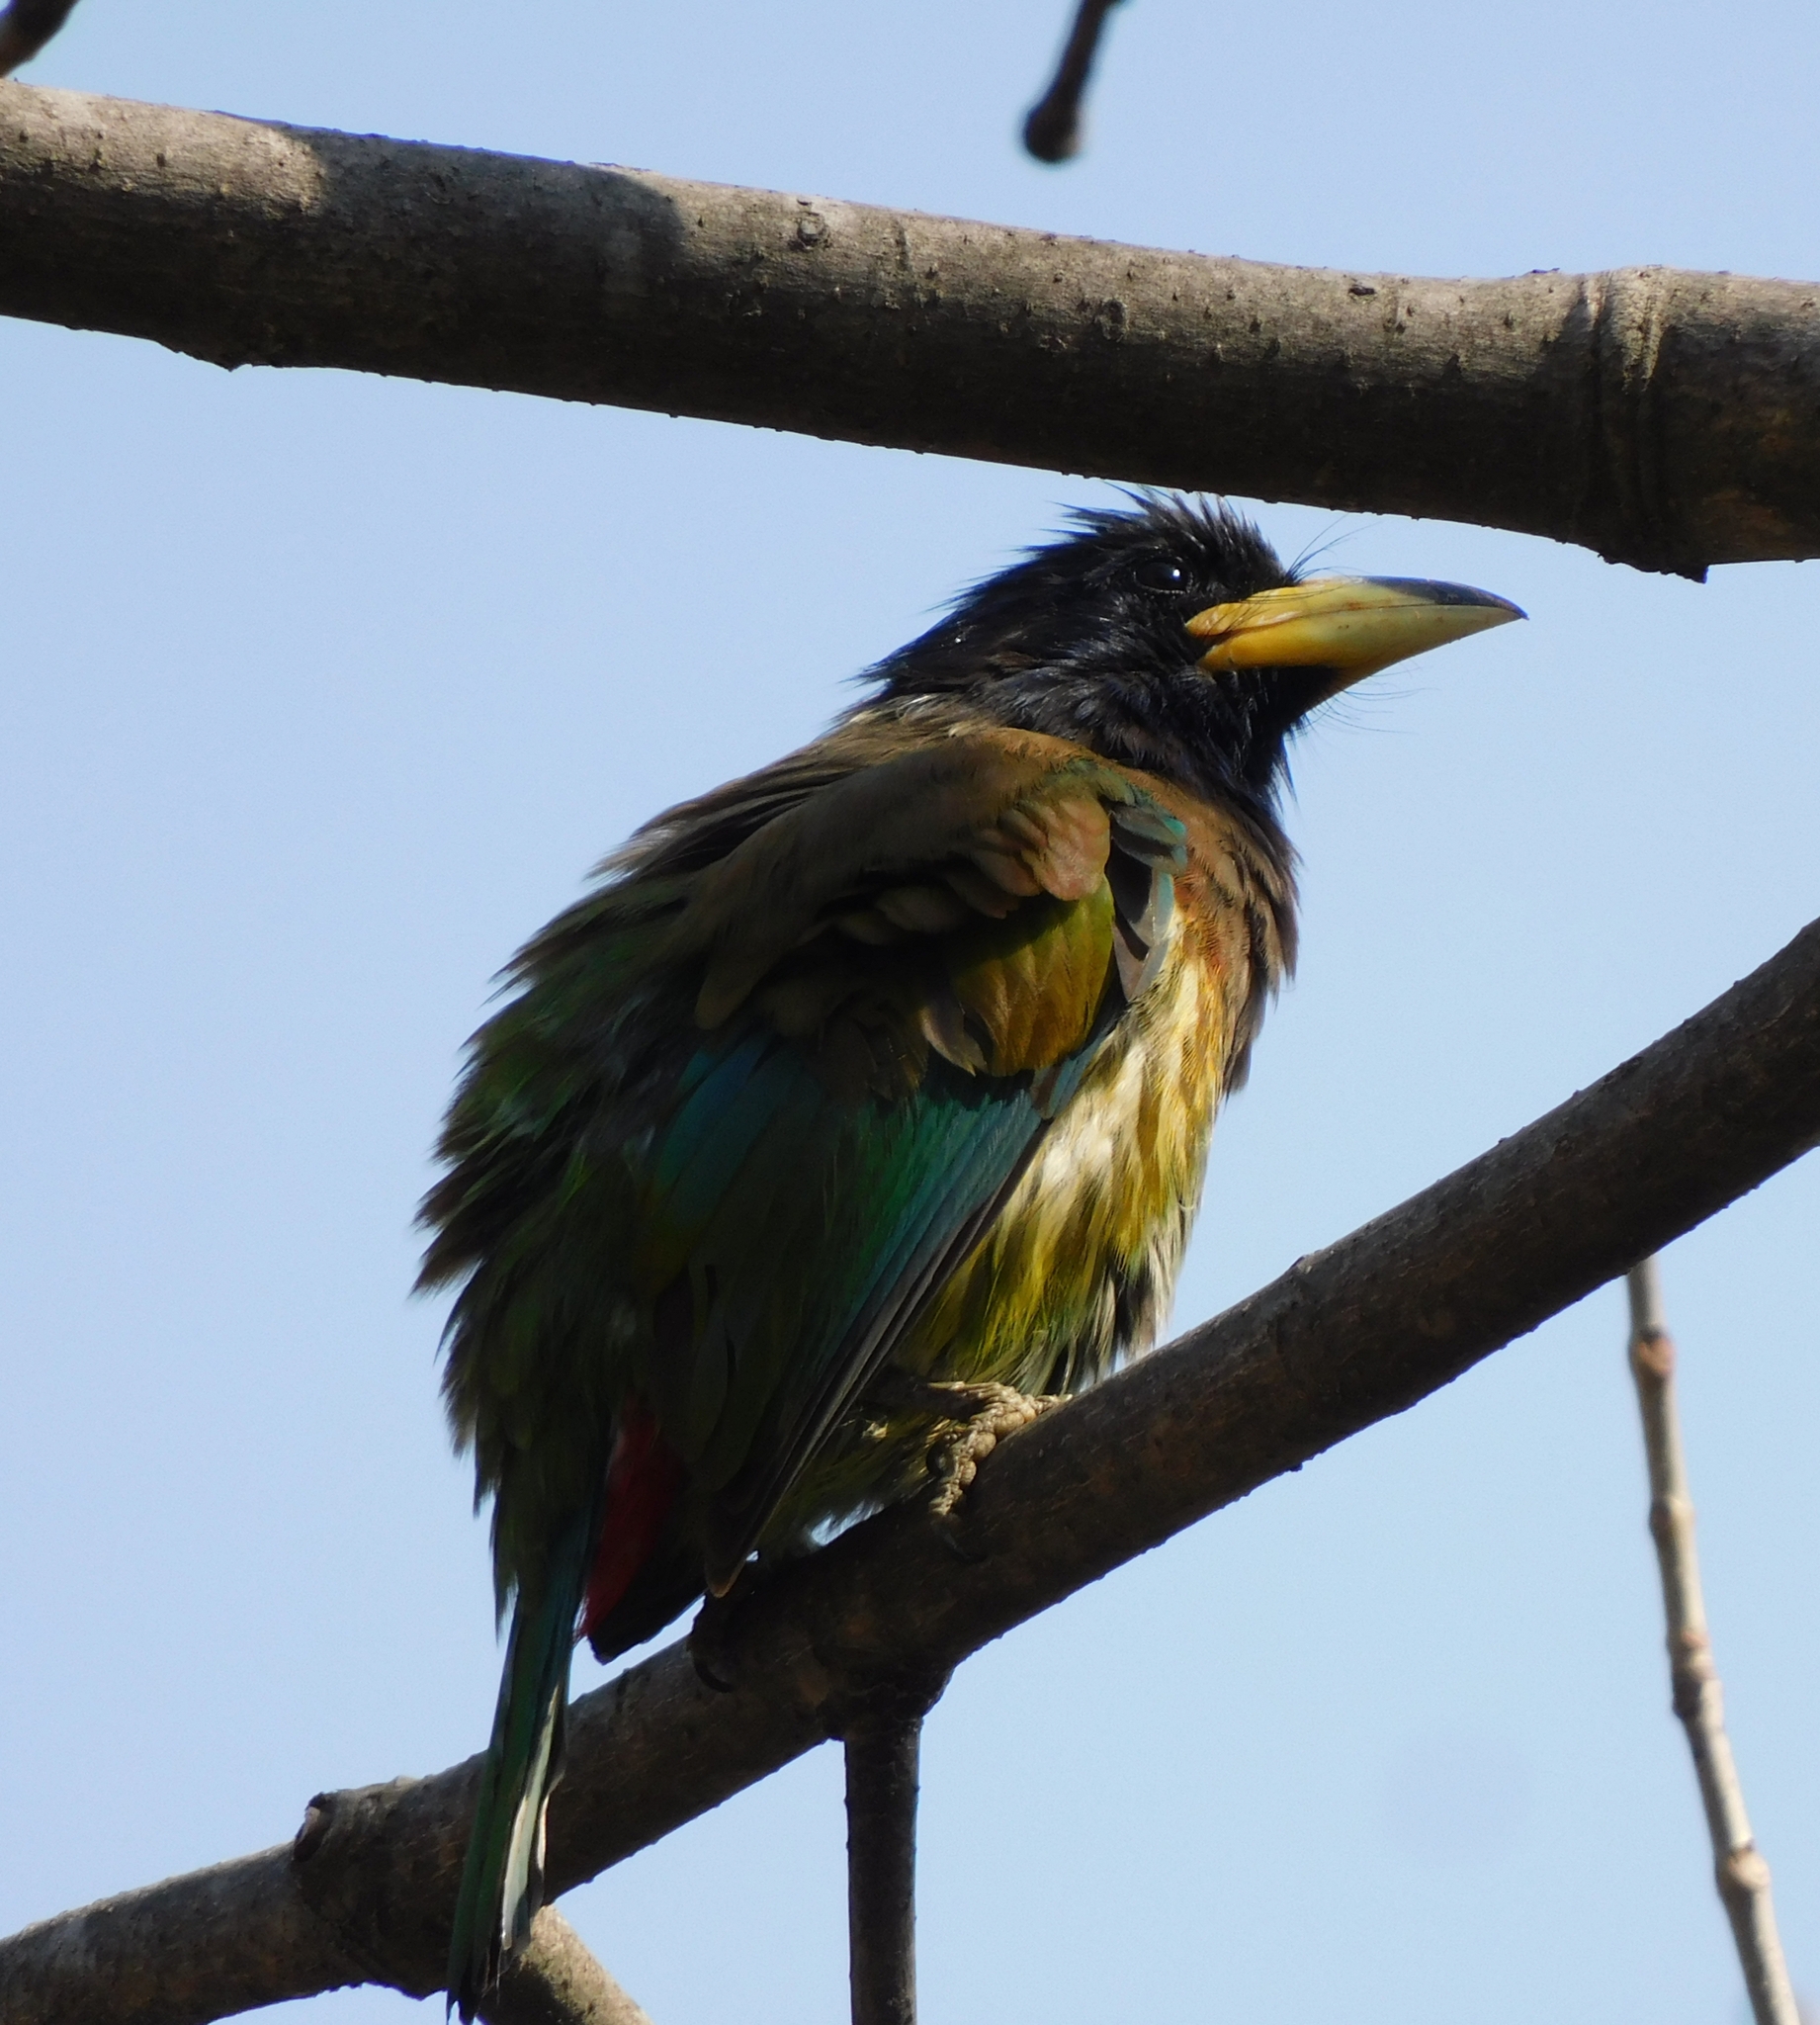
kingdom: Animalia
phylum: Chordata
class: Aves
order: Piciformes
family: Megalaimidae
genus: Psilopogon
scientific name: Psilopogon virens
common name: Great barbet
